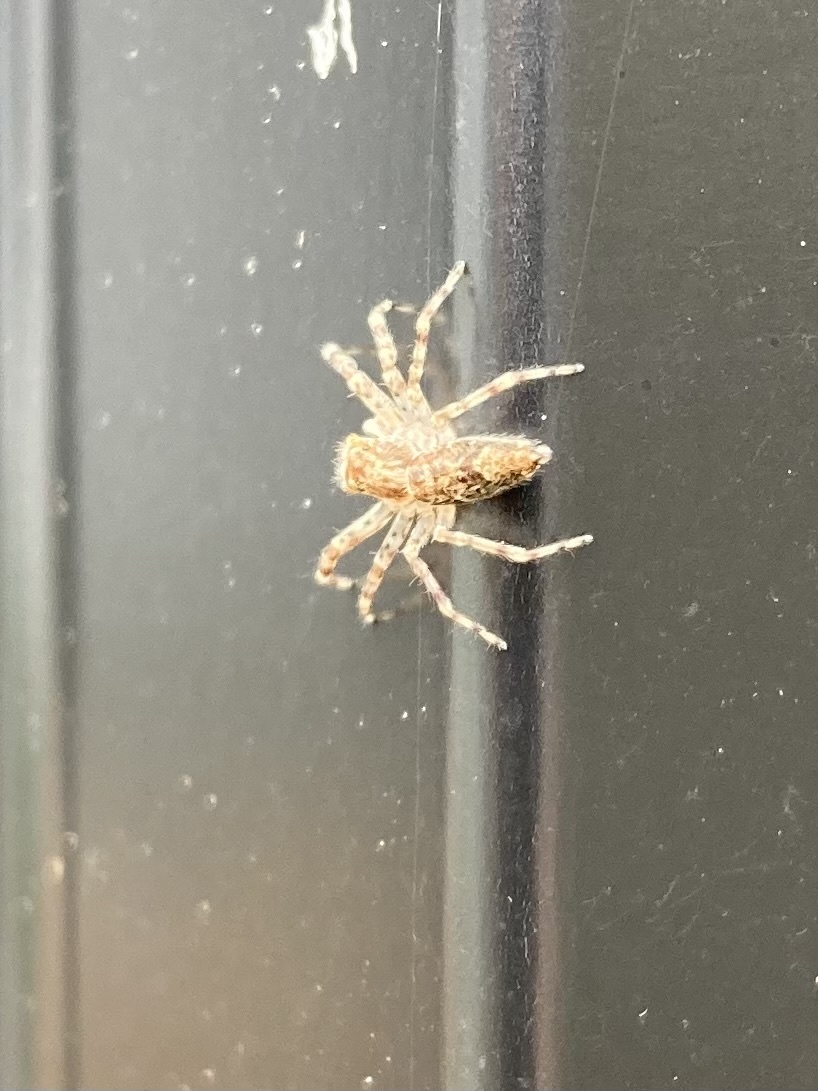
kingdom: Animalia
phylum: Arthropoda
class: Arachnida
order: Araneae
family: Salticidae
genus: Helpis
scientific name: Helpis minitabunda
